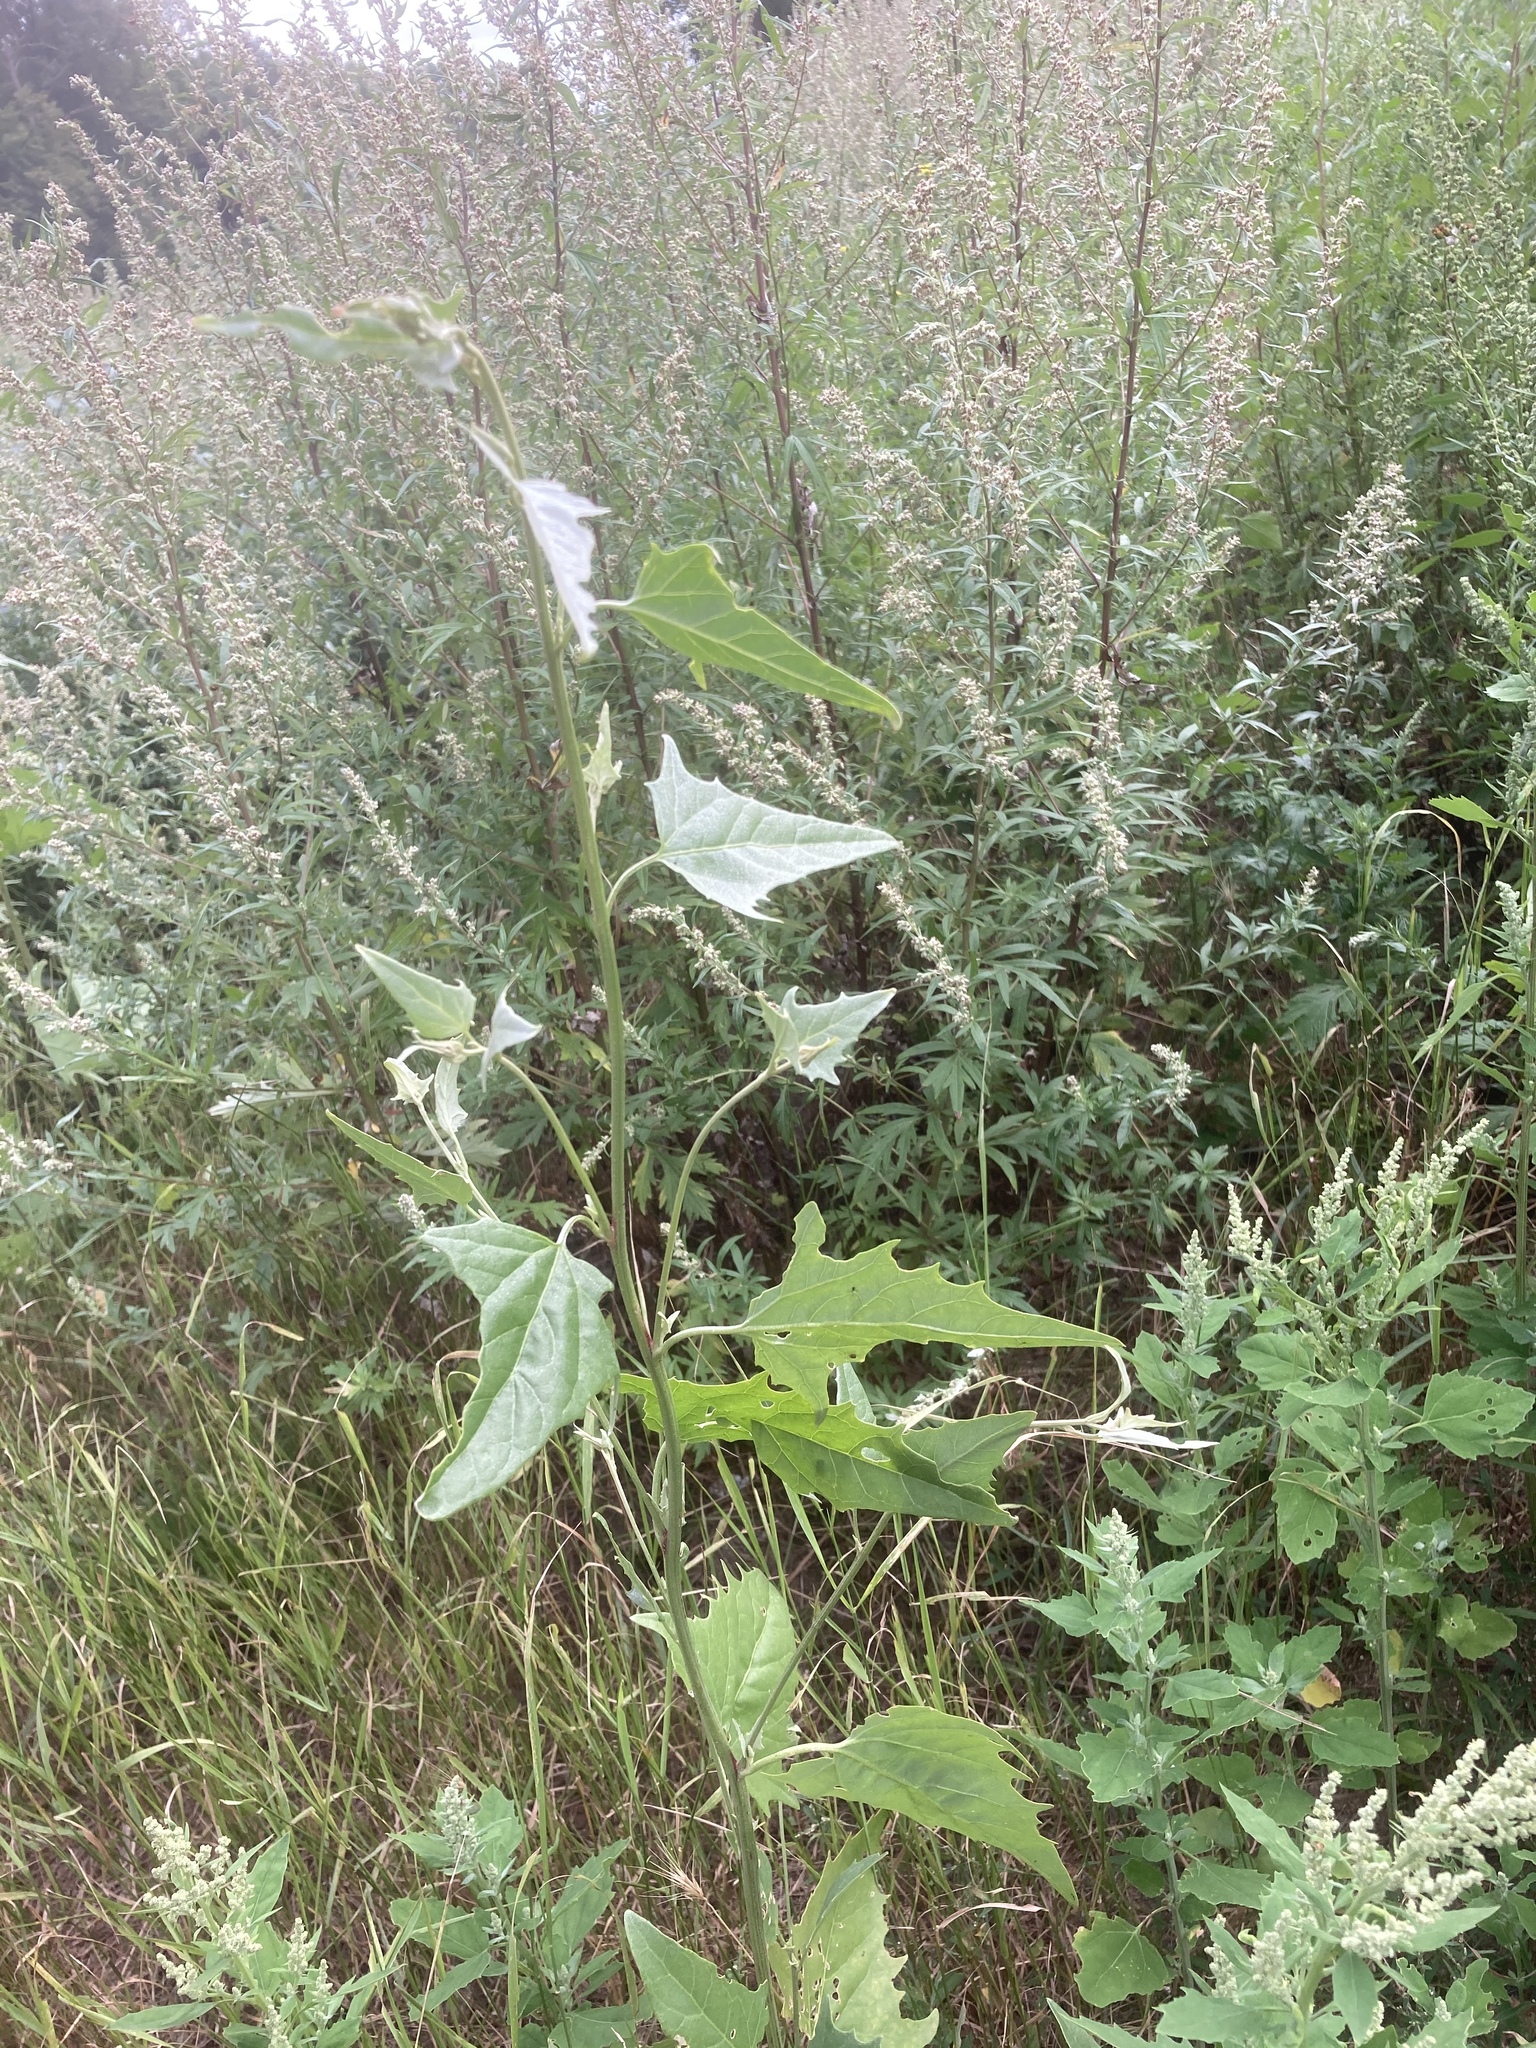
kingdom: Plantae
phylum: Tracheophyta
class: Magnoliopsida
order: Caryophyllales
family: Amaranthaceae
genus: Atriplex
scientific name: Atriplex micrantha
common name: Twoscale saltbush
